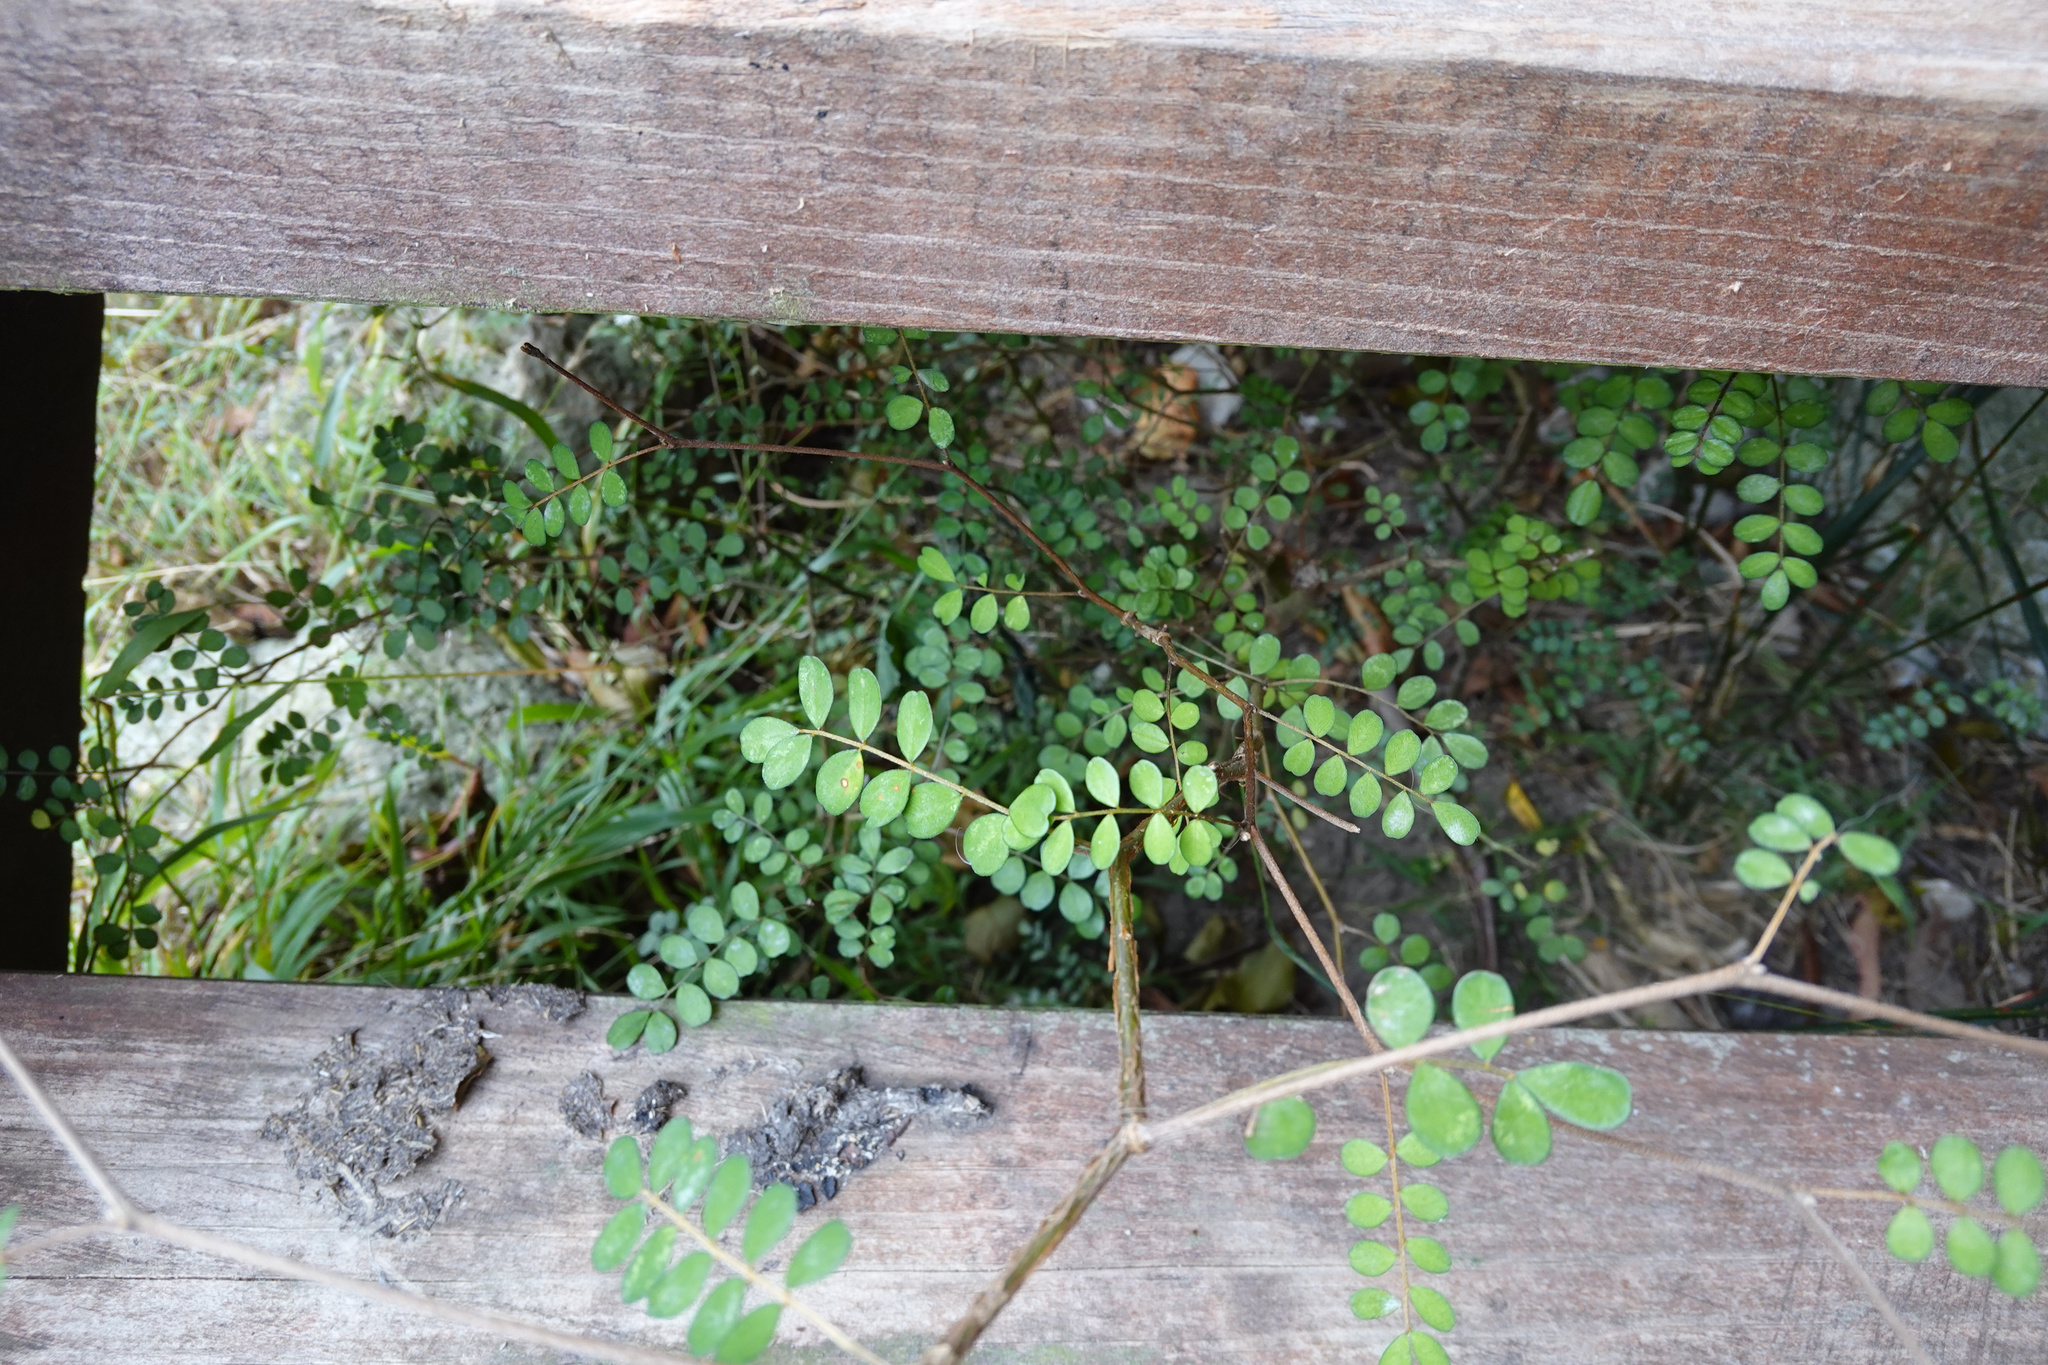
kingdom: Plantae
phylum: Tracheophyta
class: Magnoliopsida
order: Fabales
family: Fabaceae
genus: Sophora
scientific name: Sophora microphylla
